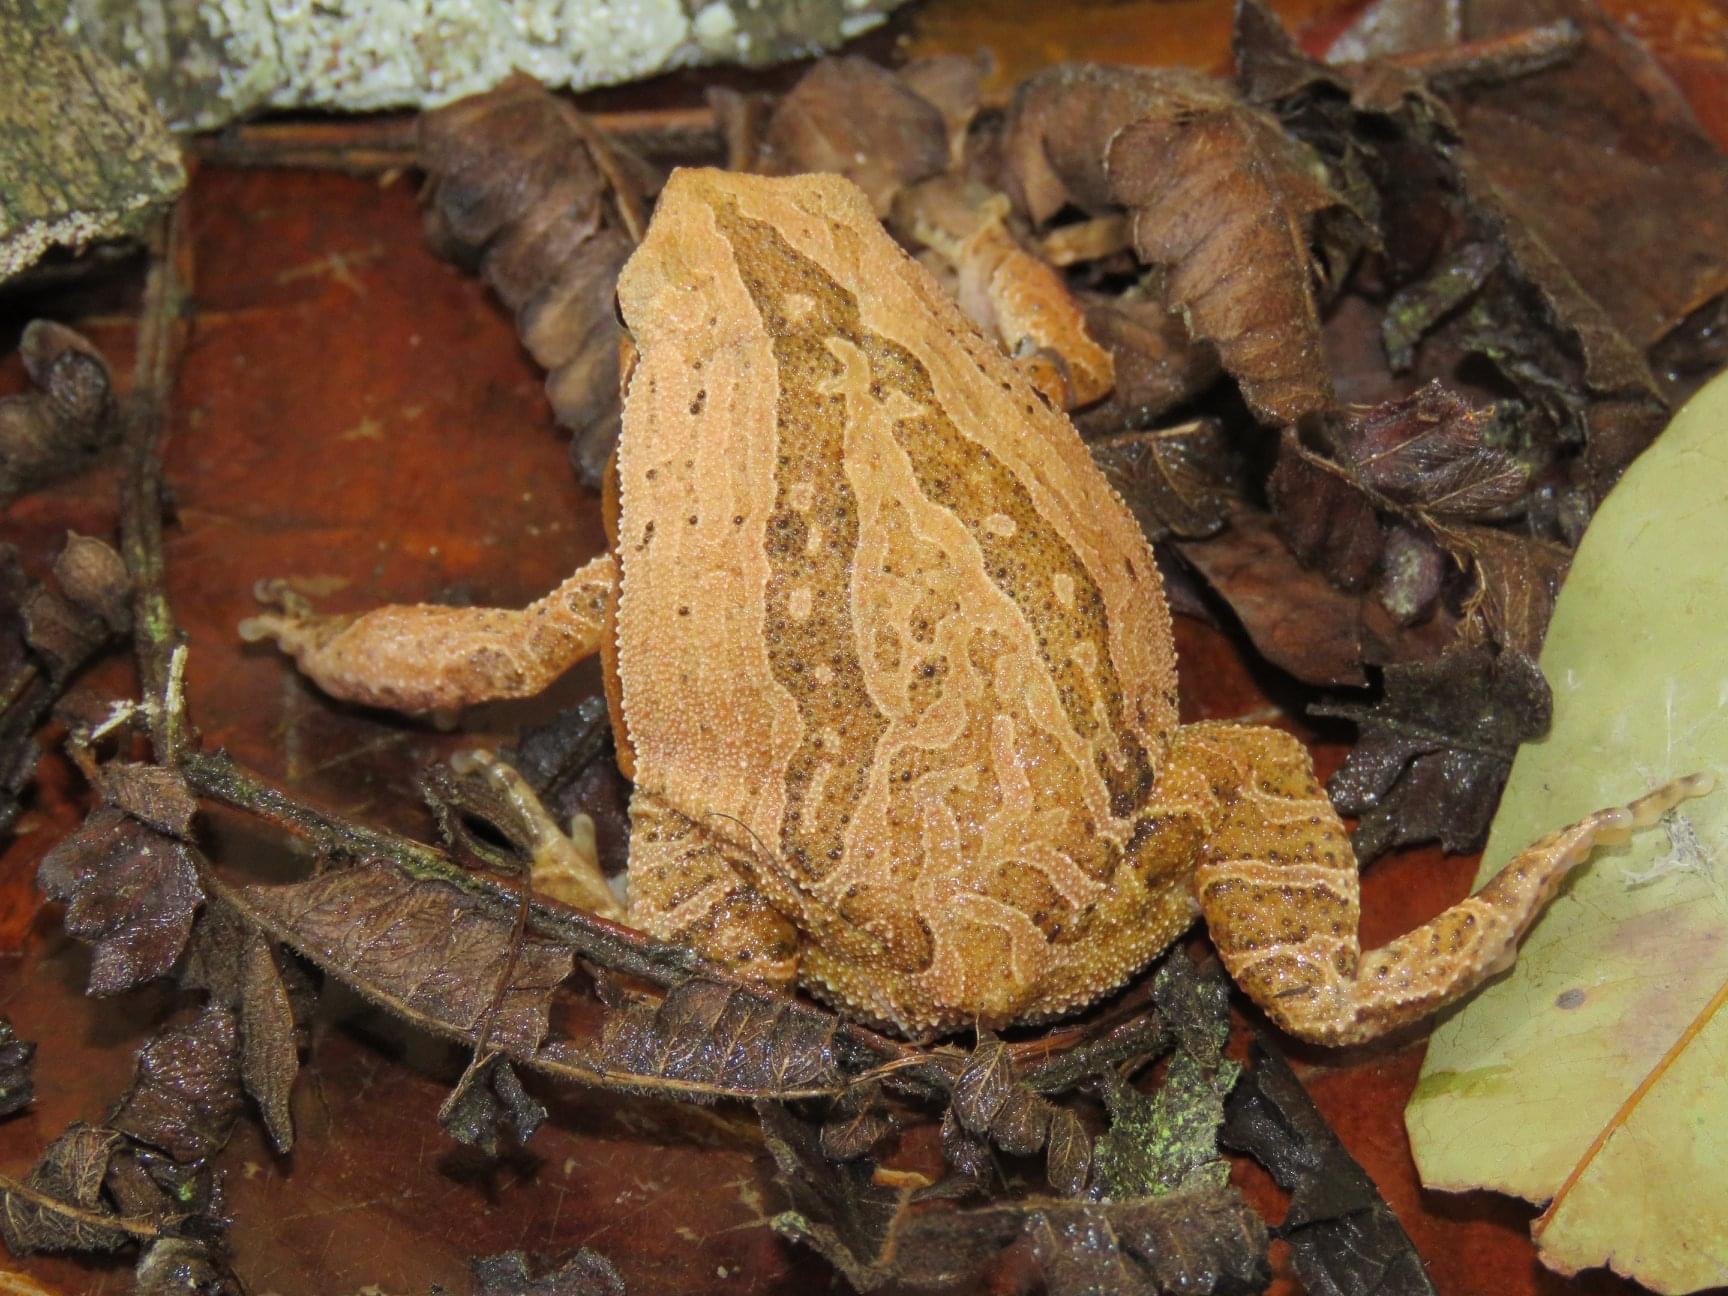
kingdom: Animalia
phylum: Chordata
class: Amphibia
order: Anura
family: Microhylidae
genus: Kalophrynus
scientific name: Kalophrynus interlineatus
